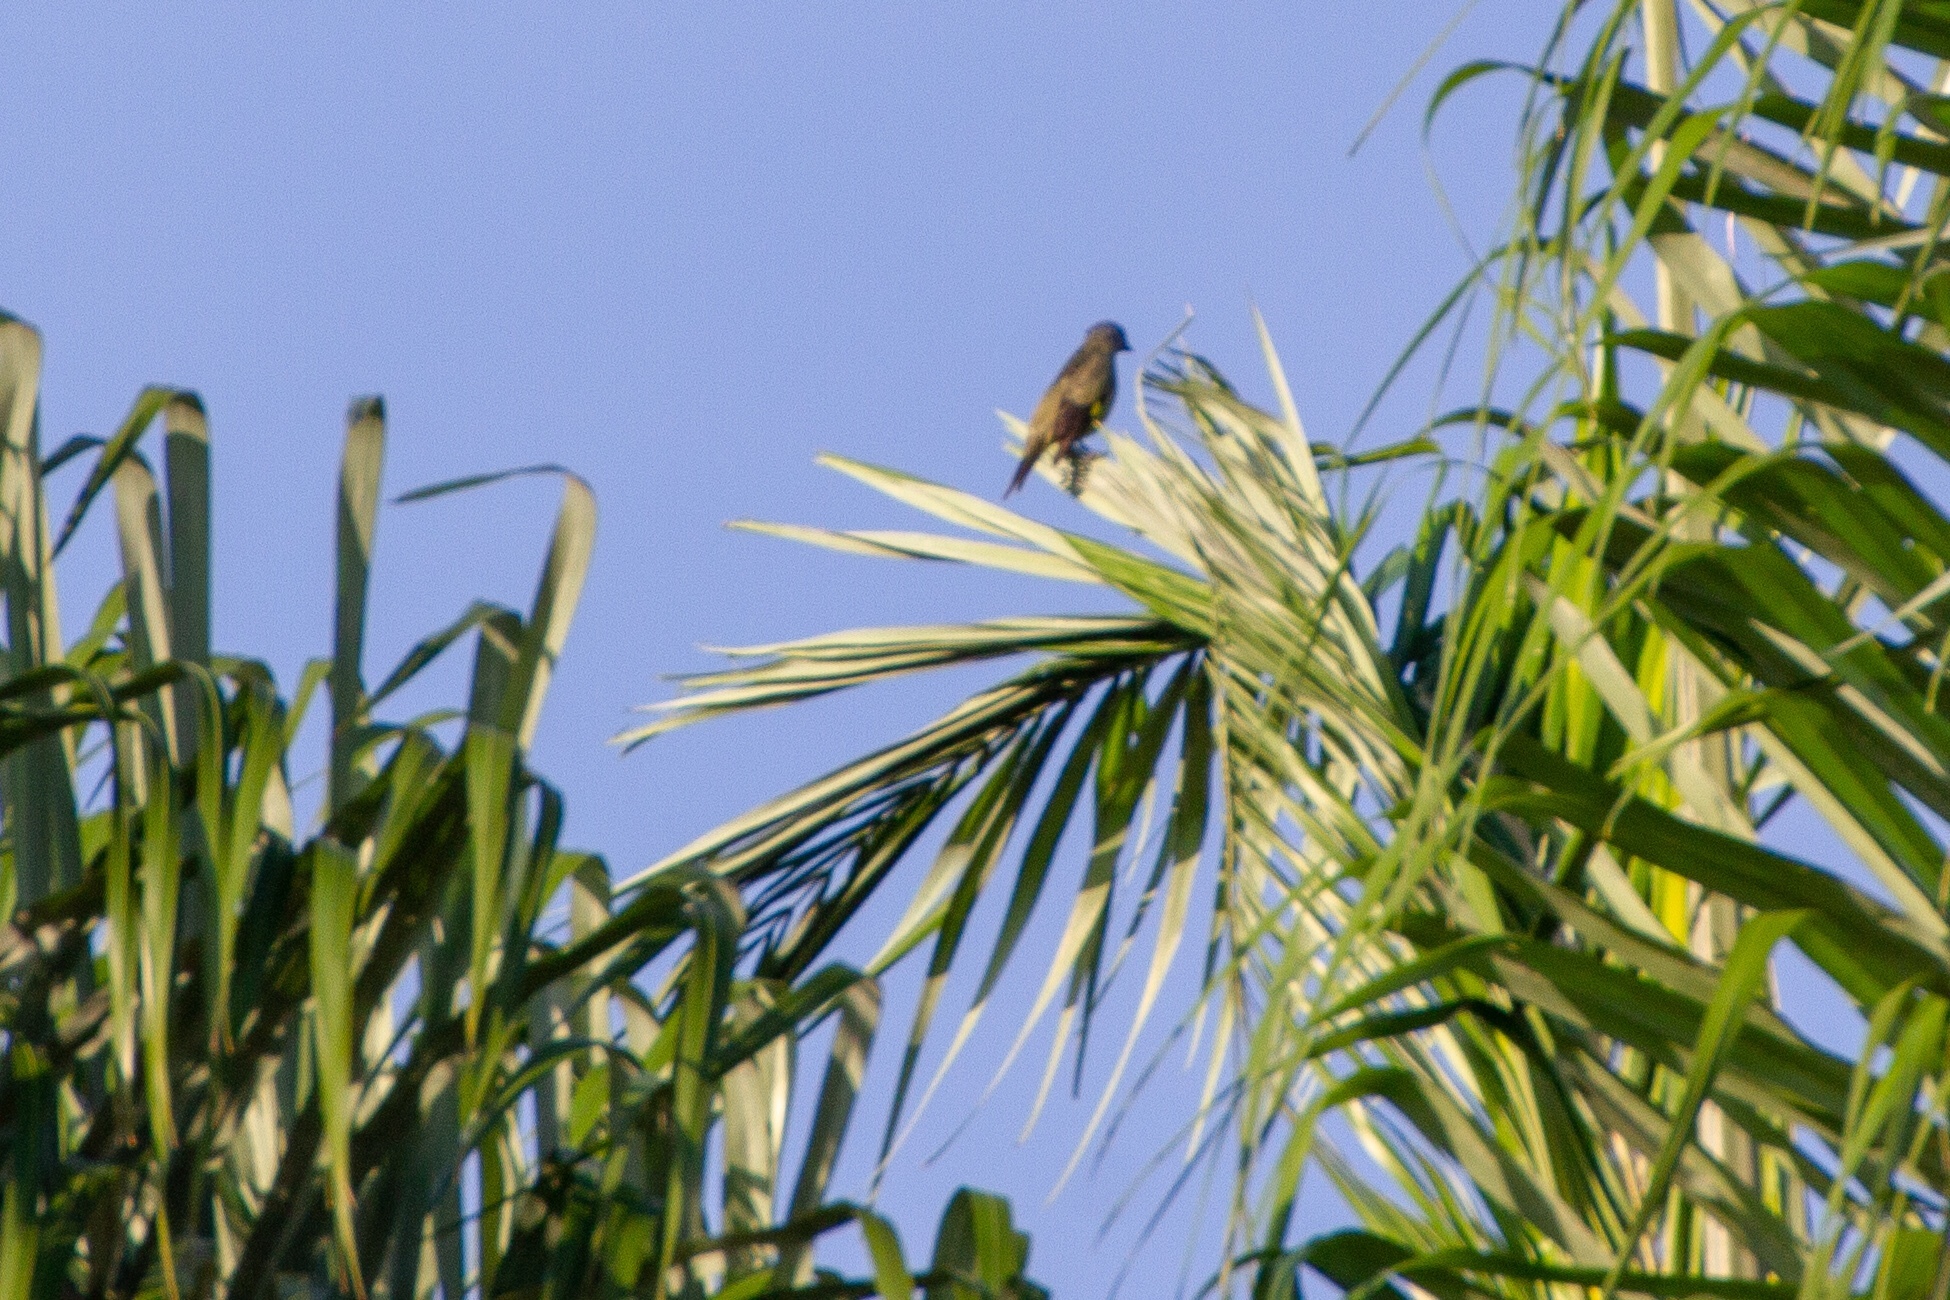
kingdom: Animalia
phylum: Chordata
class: Aves
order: Passeriformes
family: Thraupidae
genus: Thraupis
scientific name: Thraupis abbas
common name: Yellow-winged tanager
